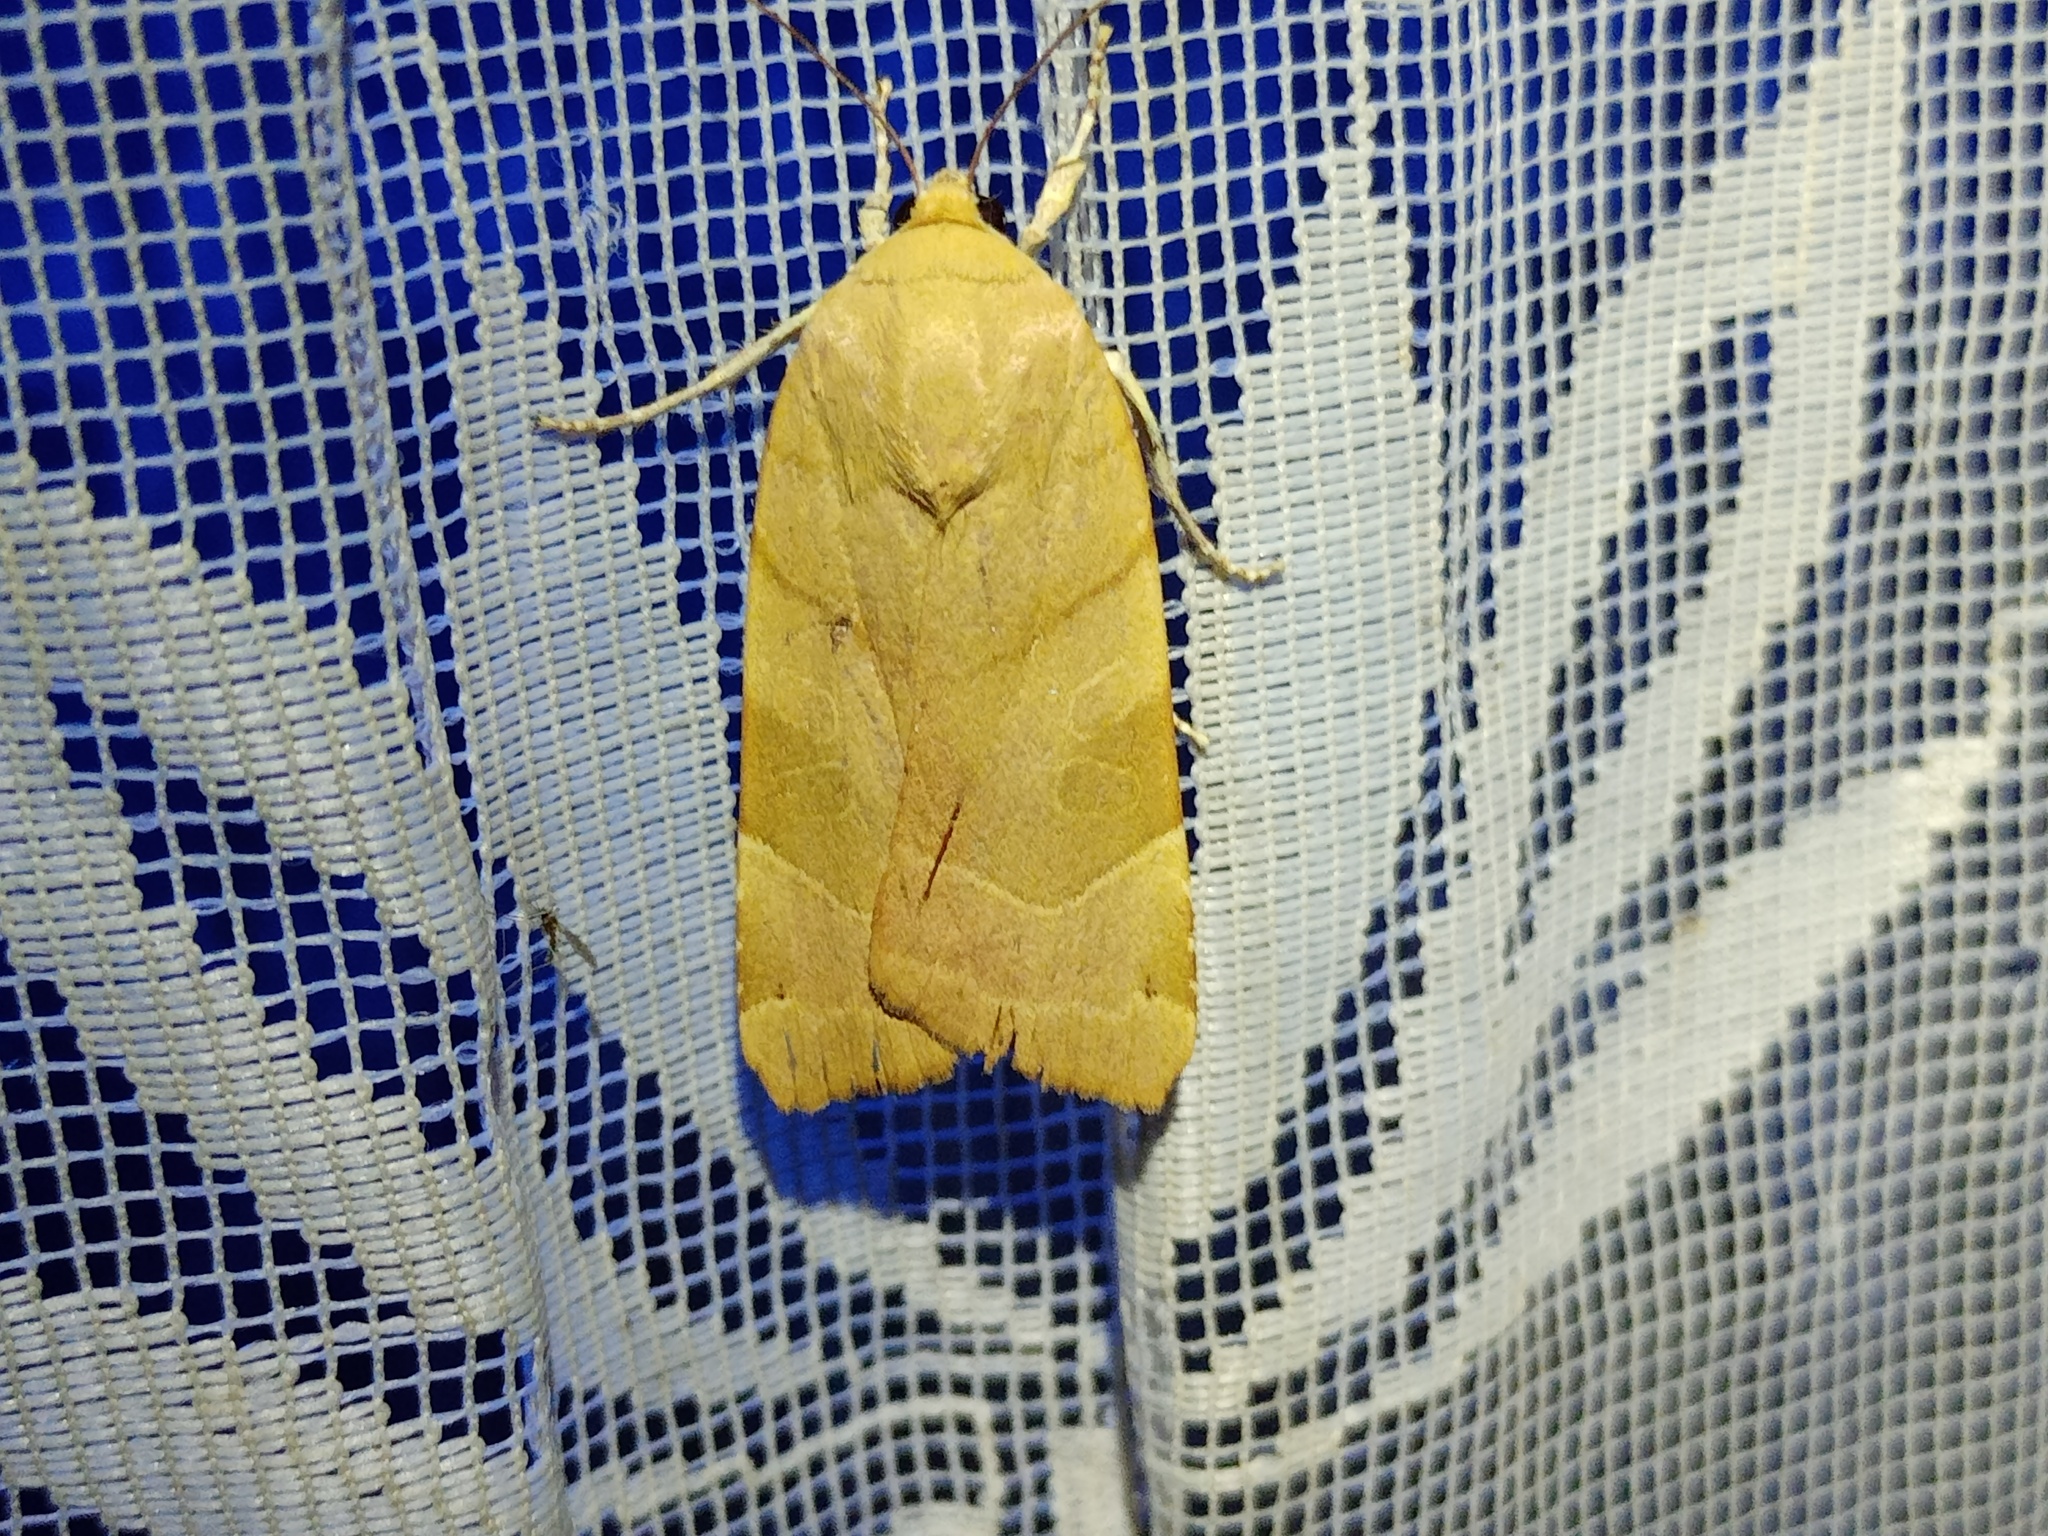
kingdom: Animalia
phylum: Arthropoda
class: Insecta
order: Lepidoptera
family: Noctuidae
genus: Noctua
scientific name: Noctua fimbriata
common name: Broad-bordered yellow underwing
